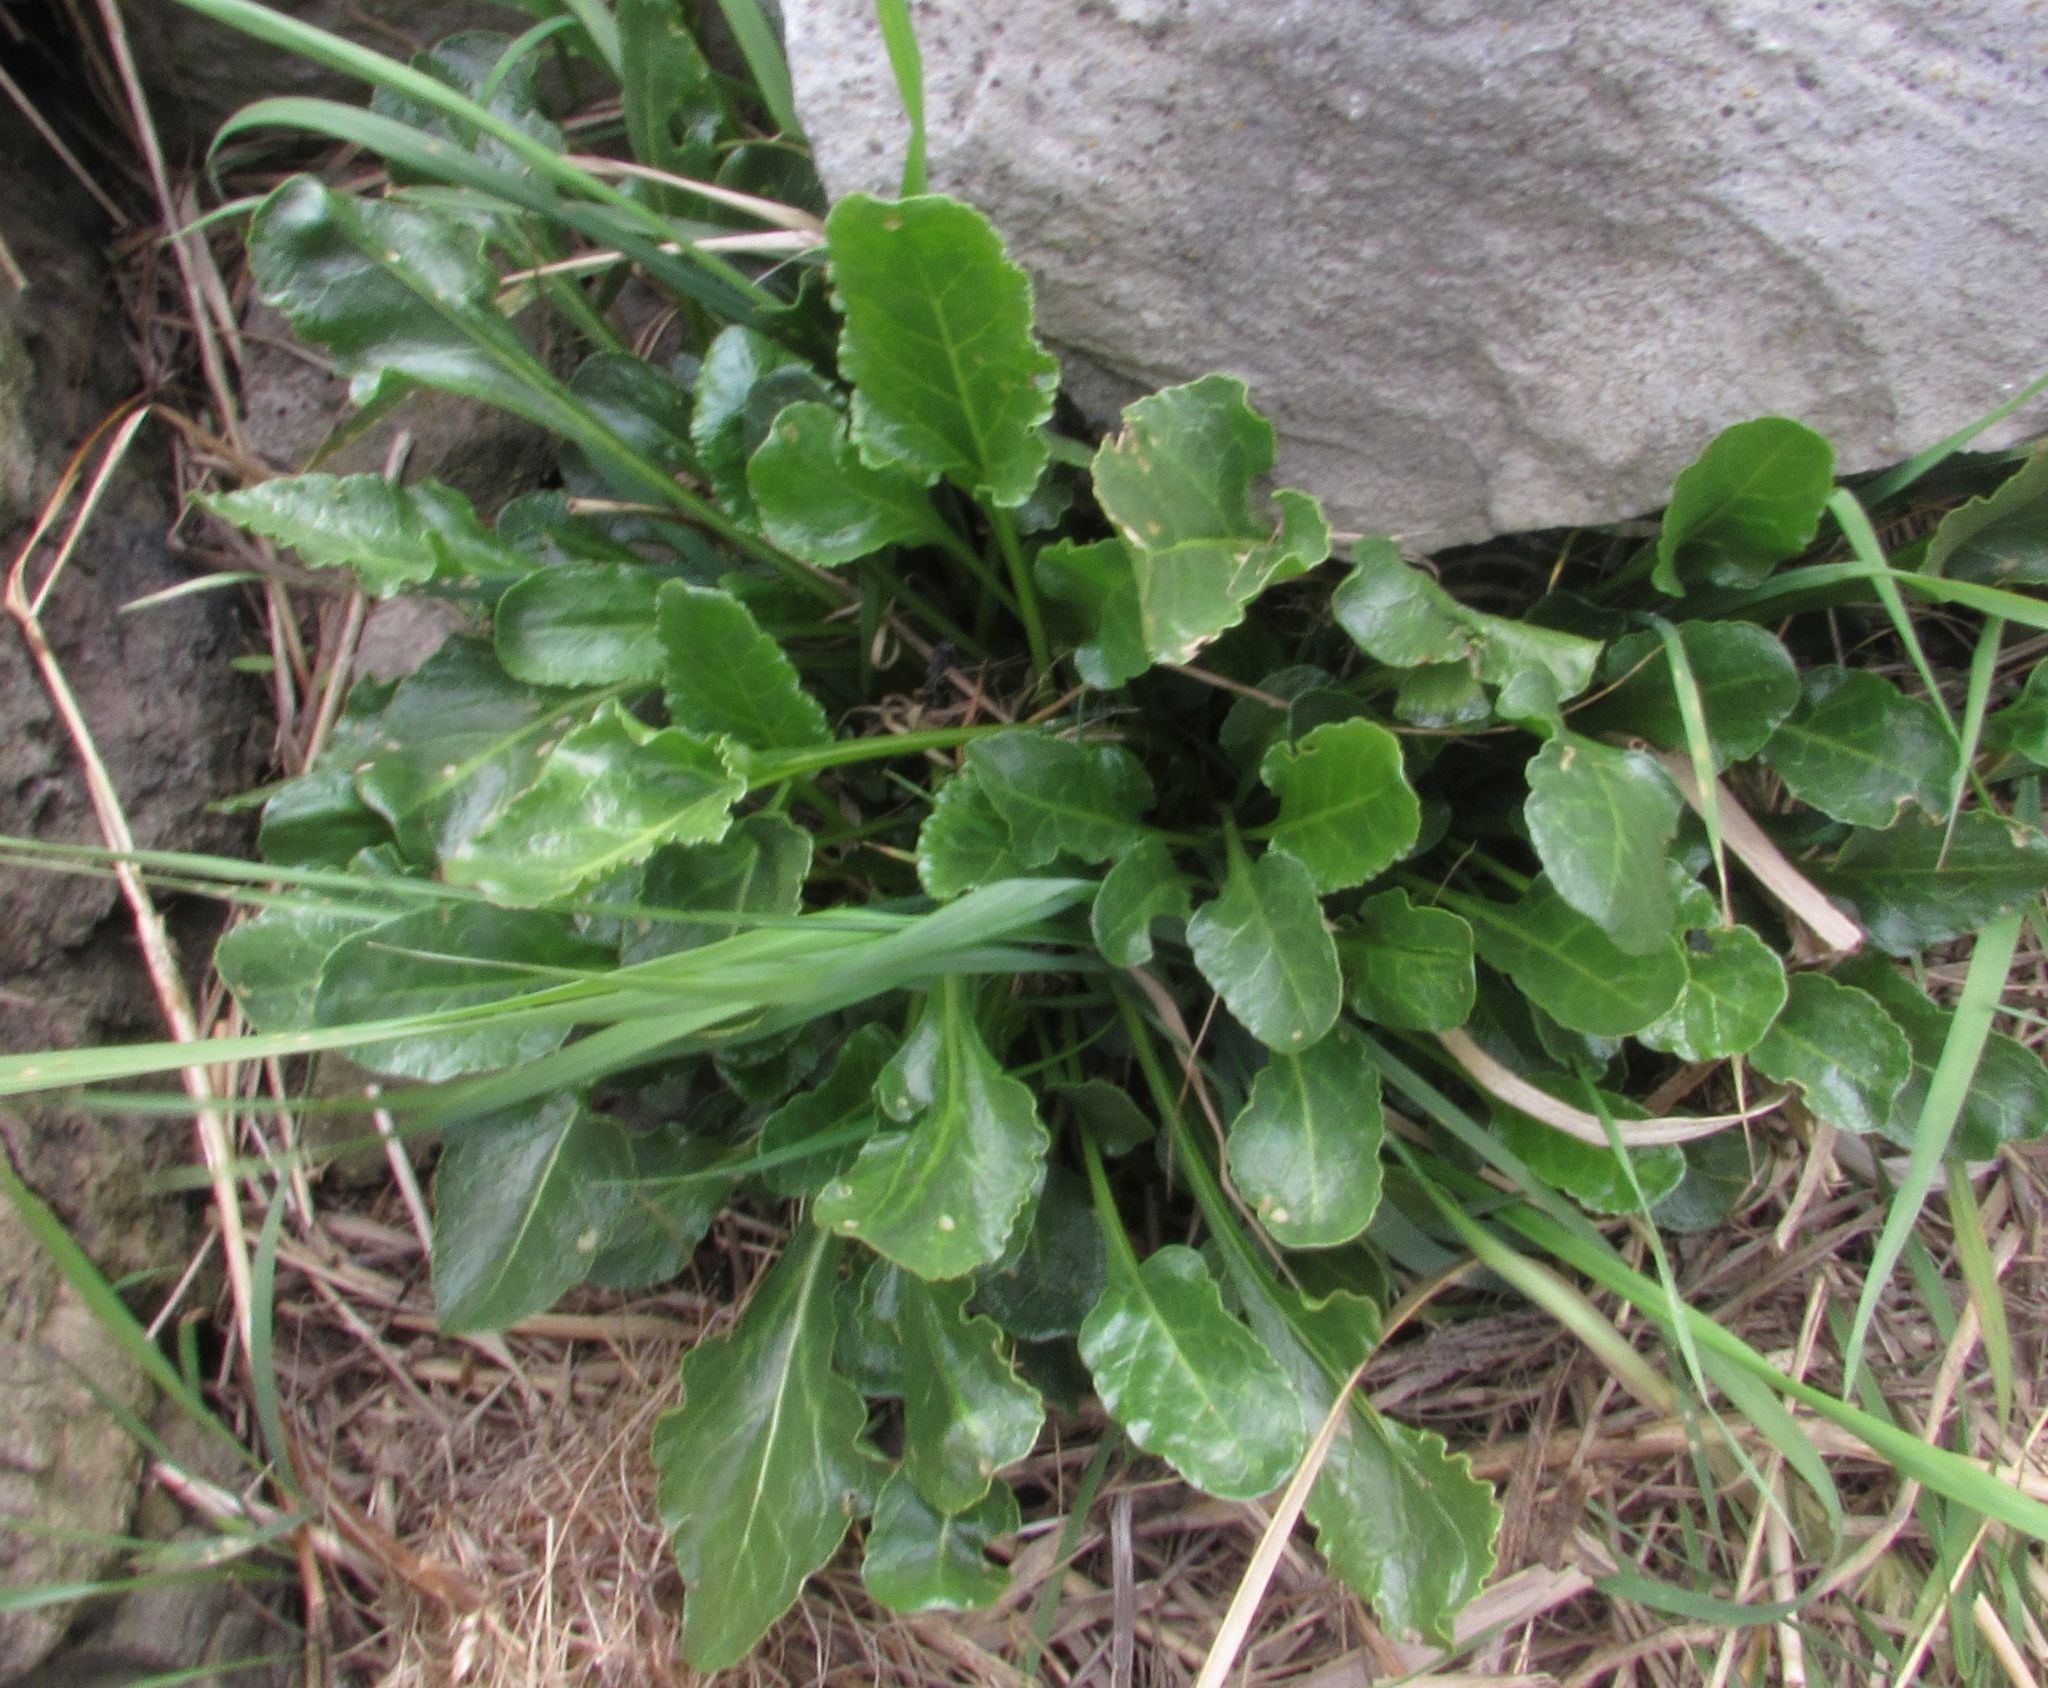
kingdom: Plantae
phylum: Tracheophyta
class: Magnoliopsida
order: Caryophyllales
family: Amaranthaceae
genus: Beta
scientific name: Beta vulgaris
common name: Beet
